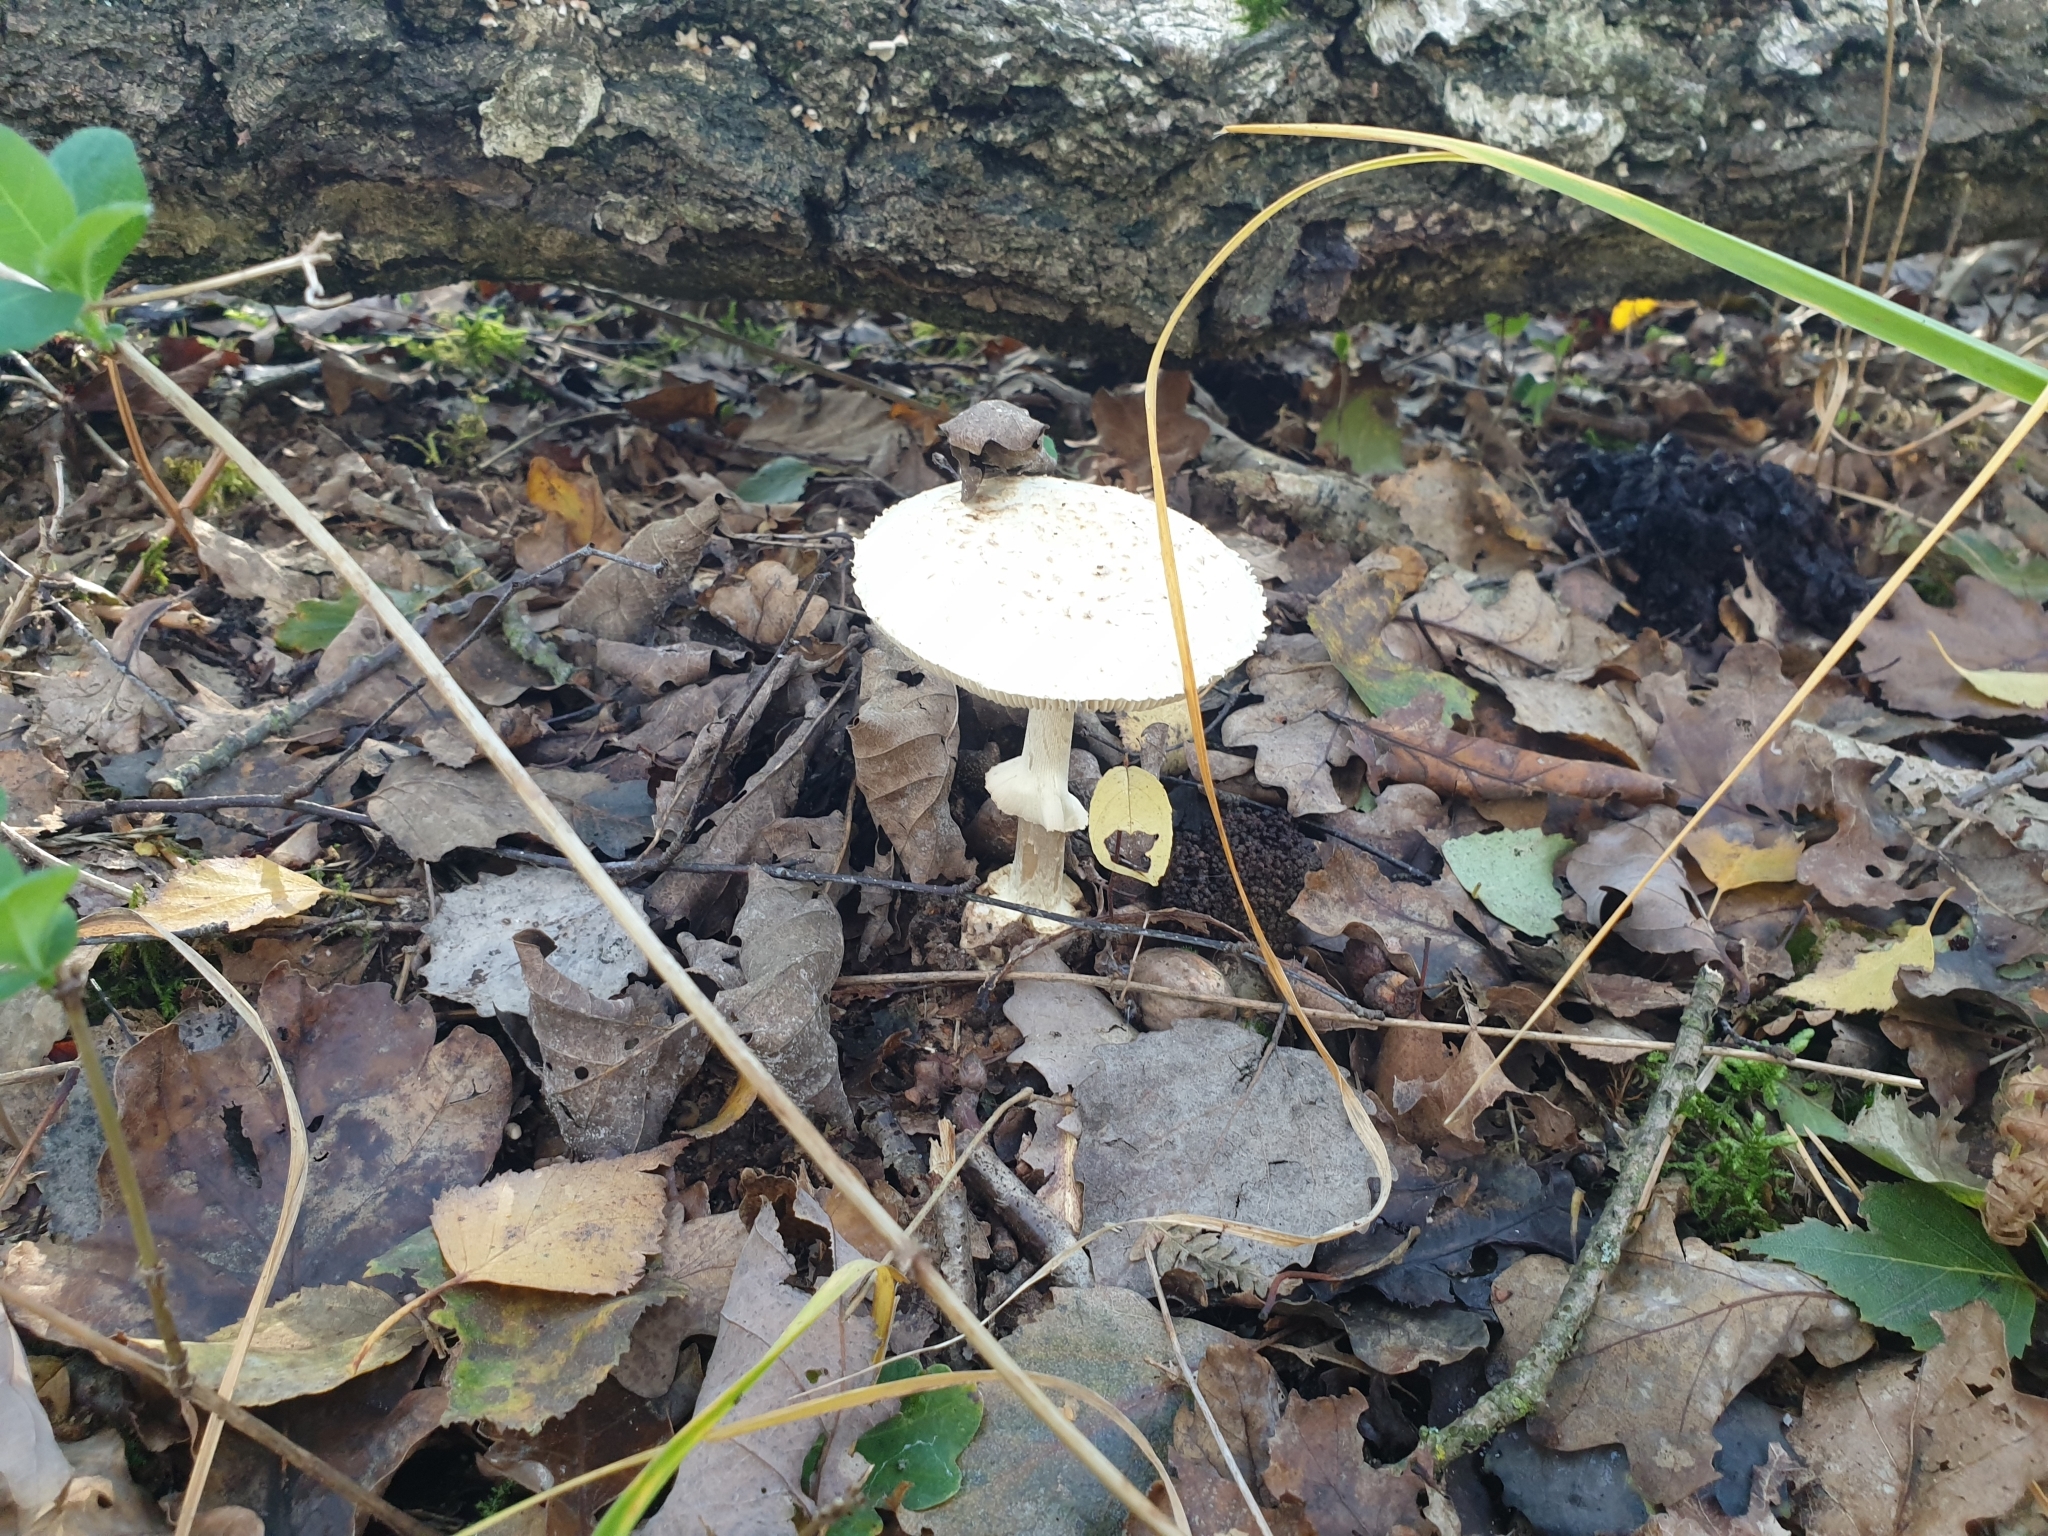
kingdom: Fungi
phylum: Basidiomycota
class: Agaricomycetes
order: Agaricales
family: Amanitaceae
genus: Amanita
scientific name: Amanita citrina
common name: False death-cap
